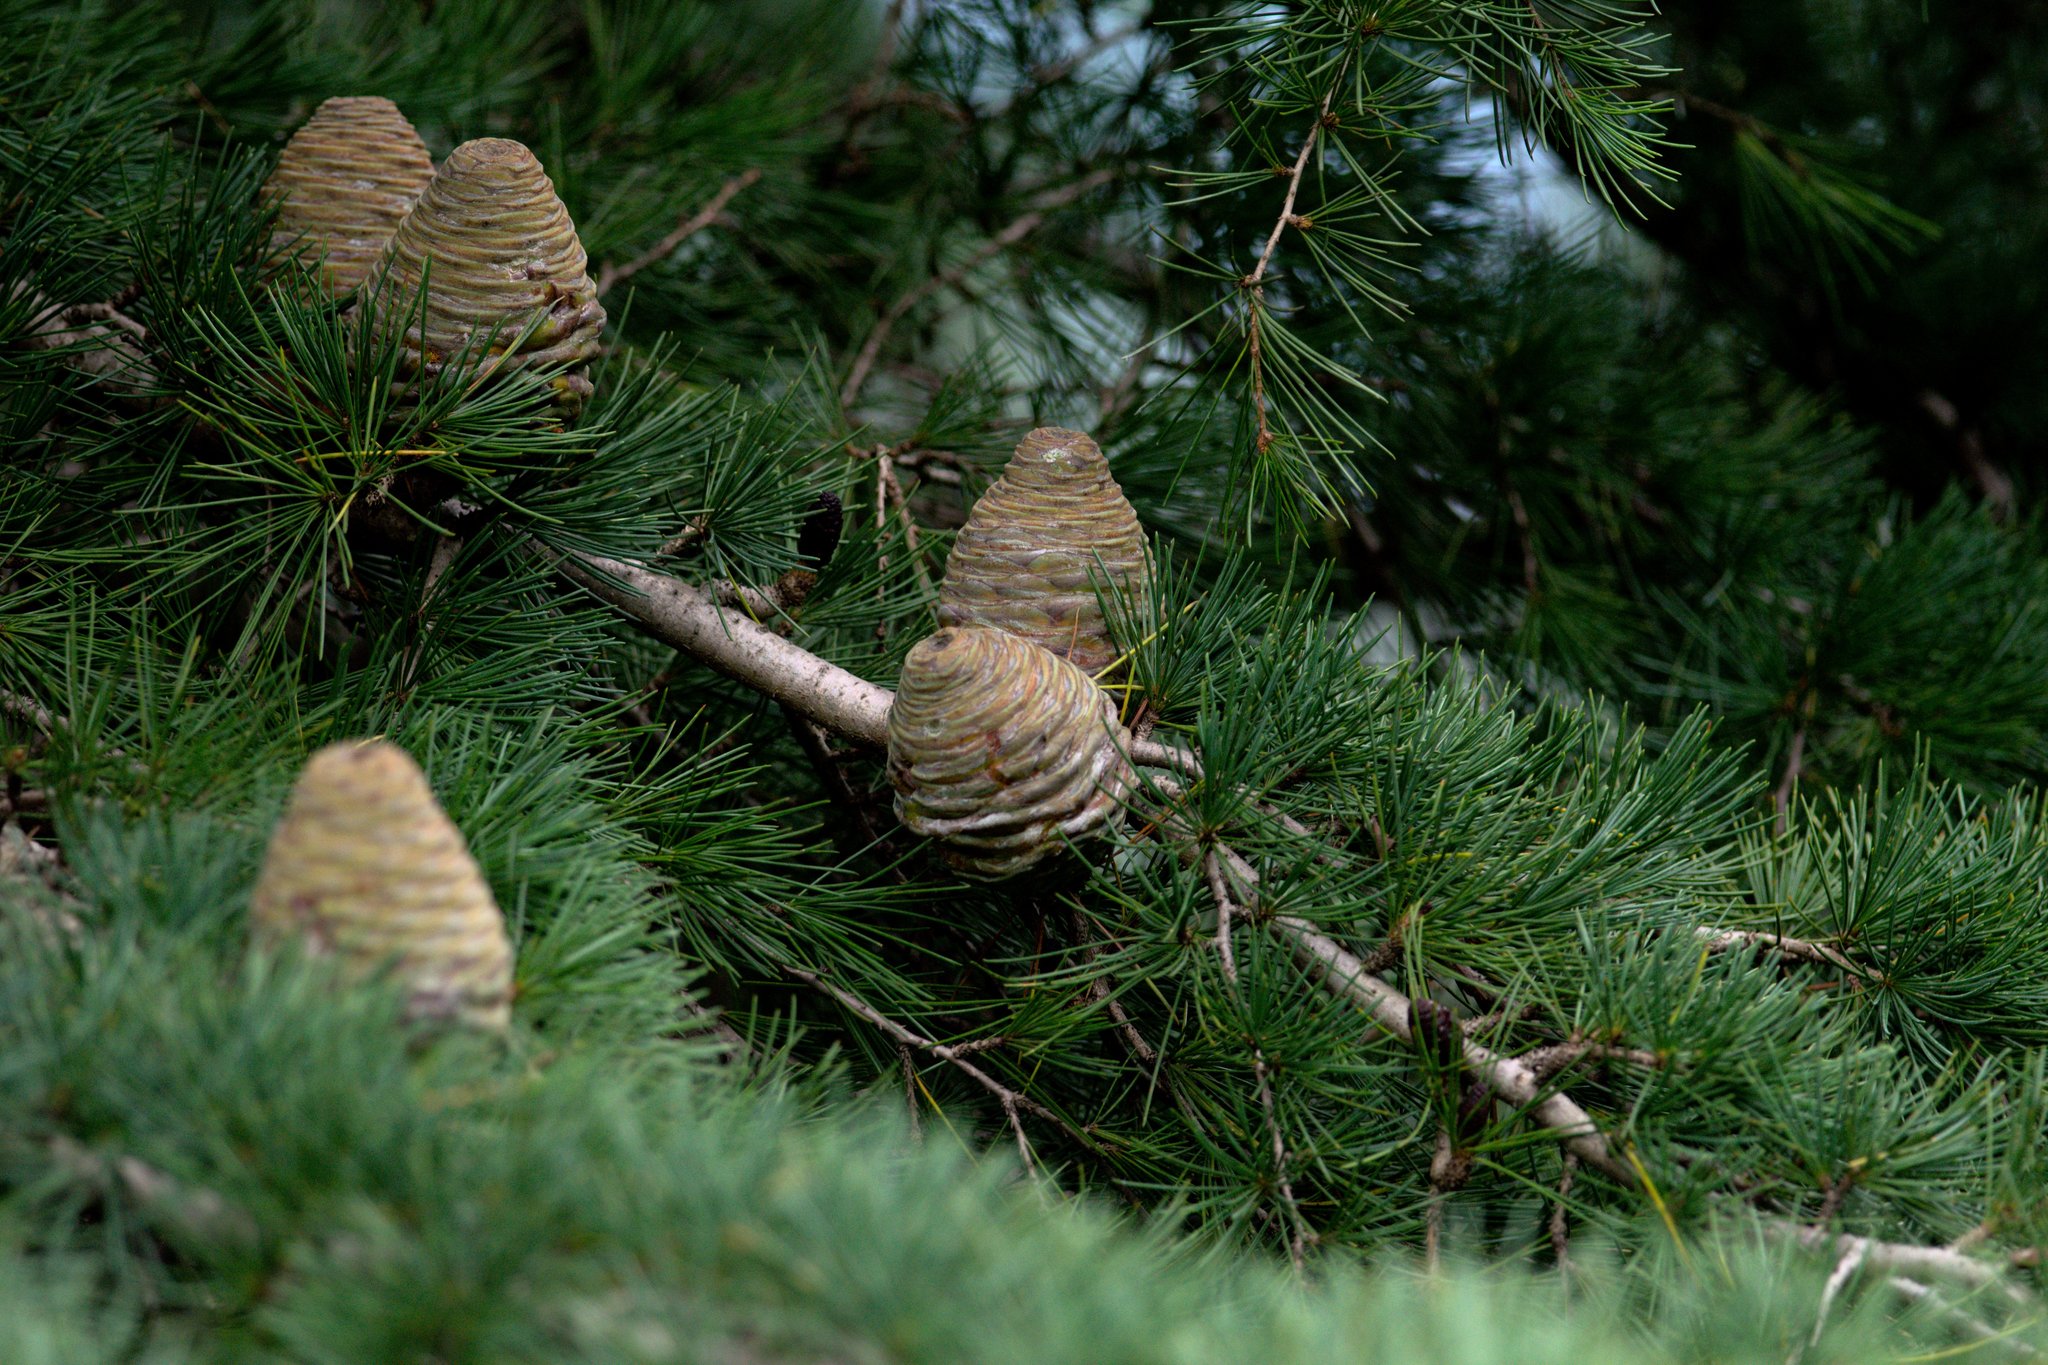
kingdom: Plantae
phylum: Tracheophyta
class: Pinopsida
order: Pinales
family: Pinaceae
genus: Cedrus
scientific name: Cedrus deodara
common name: Deodar
